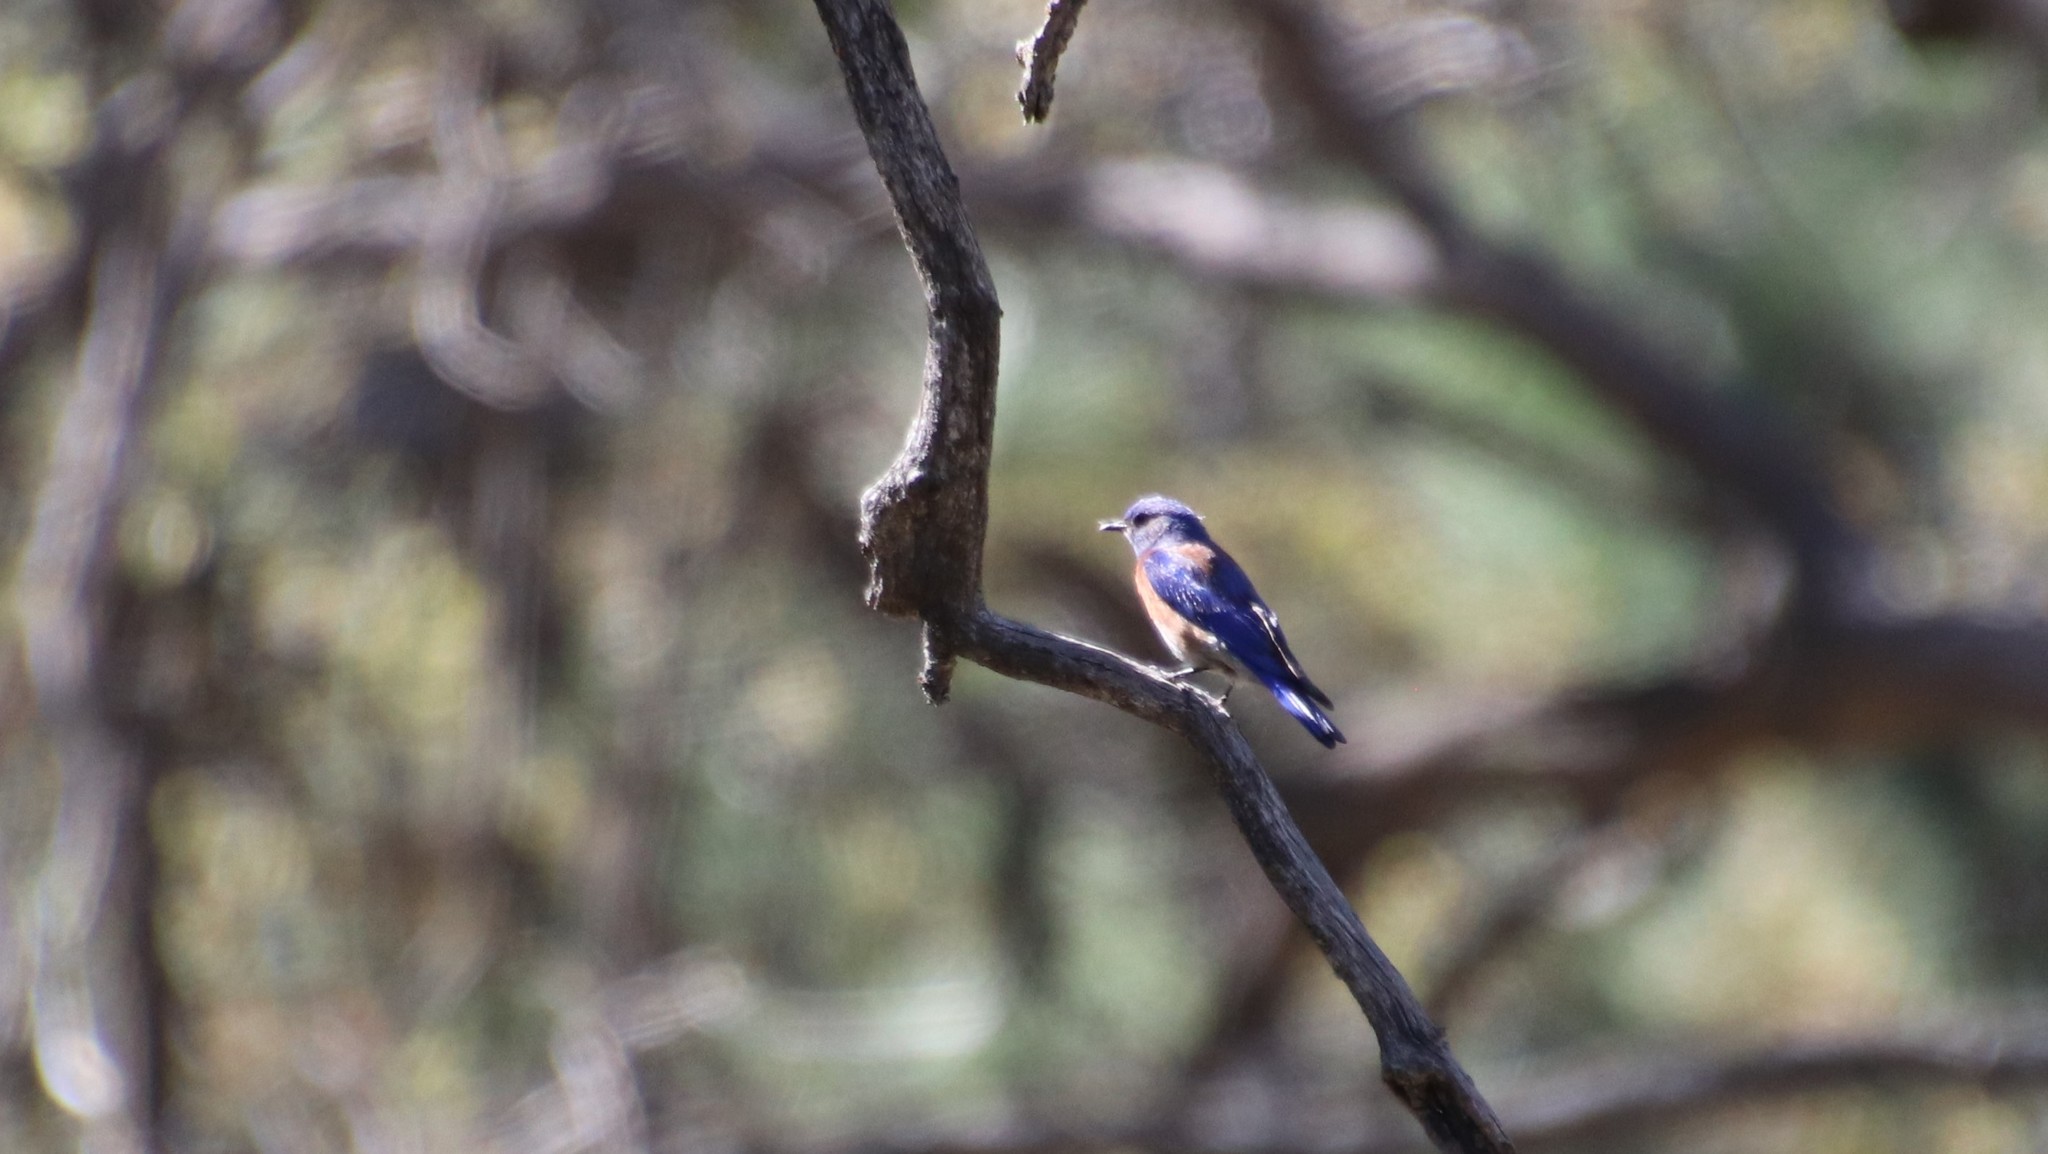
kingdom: Animalia
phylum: Chordata
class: Aves
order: Passeriformes
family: Turdidae
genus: Sialia
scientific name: Sialia mexicana
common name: Western bluebird
